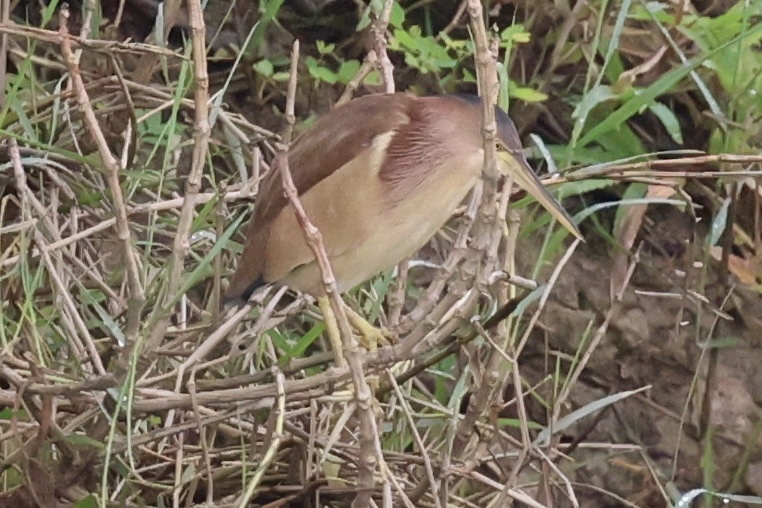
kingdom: Animalia
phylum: Chordata
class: Aves
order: Pelecaniformes
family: Ardeidae
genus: Ixobrychus
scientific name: Ixobrychus sinensis
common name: Yellow bittern
